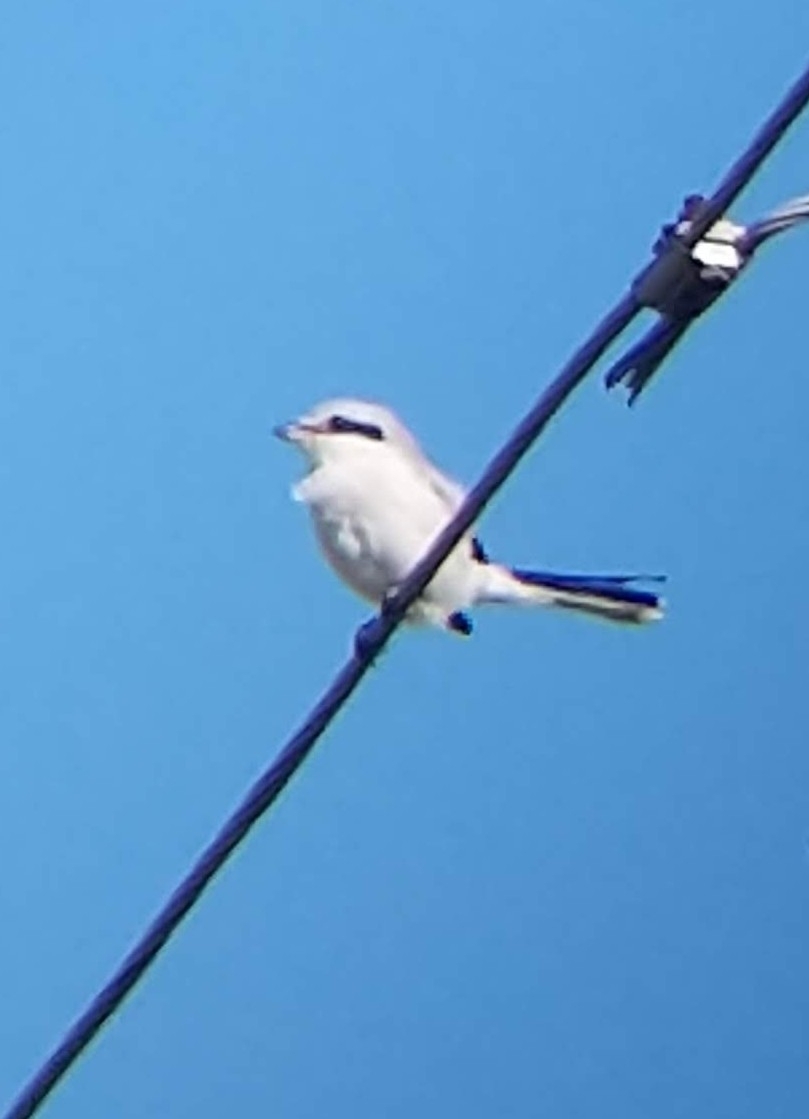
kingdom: Animalia
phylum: Chordata
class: Aves
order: Passeriformes
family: Laniidae
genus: Lanius
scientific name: Lanius excubitor
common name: Great grey shrike
